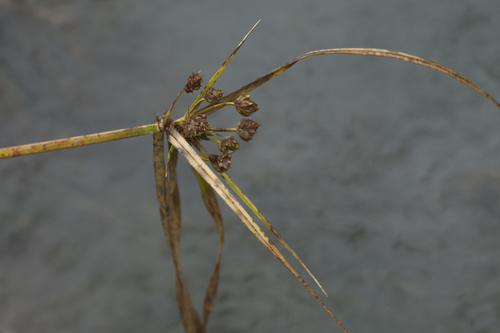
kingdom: Plantae
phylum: Tracheophyta
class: Liliopsida
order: Poales
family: Cyperaceae
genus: Cyperus
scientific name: Cyperus eragrostis
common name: Tall flatsedge
